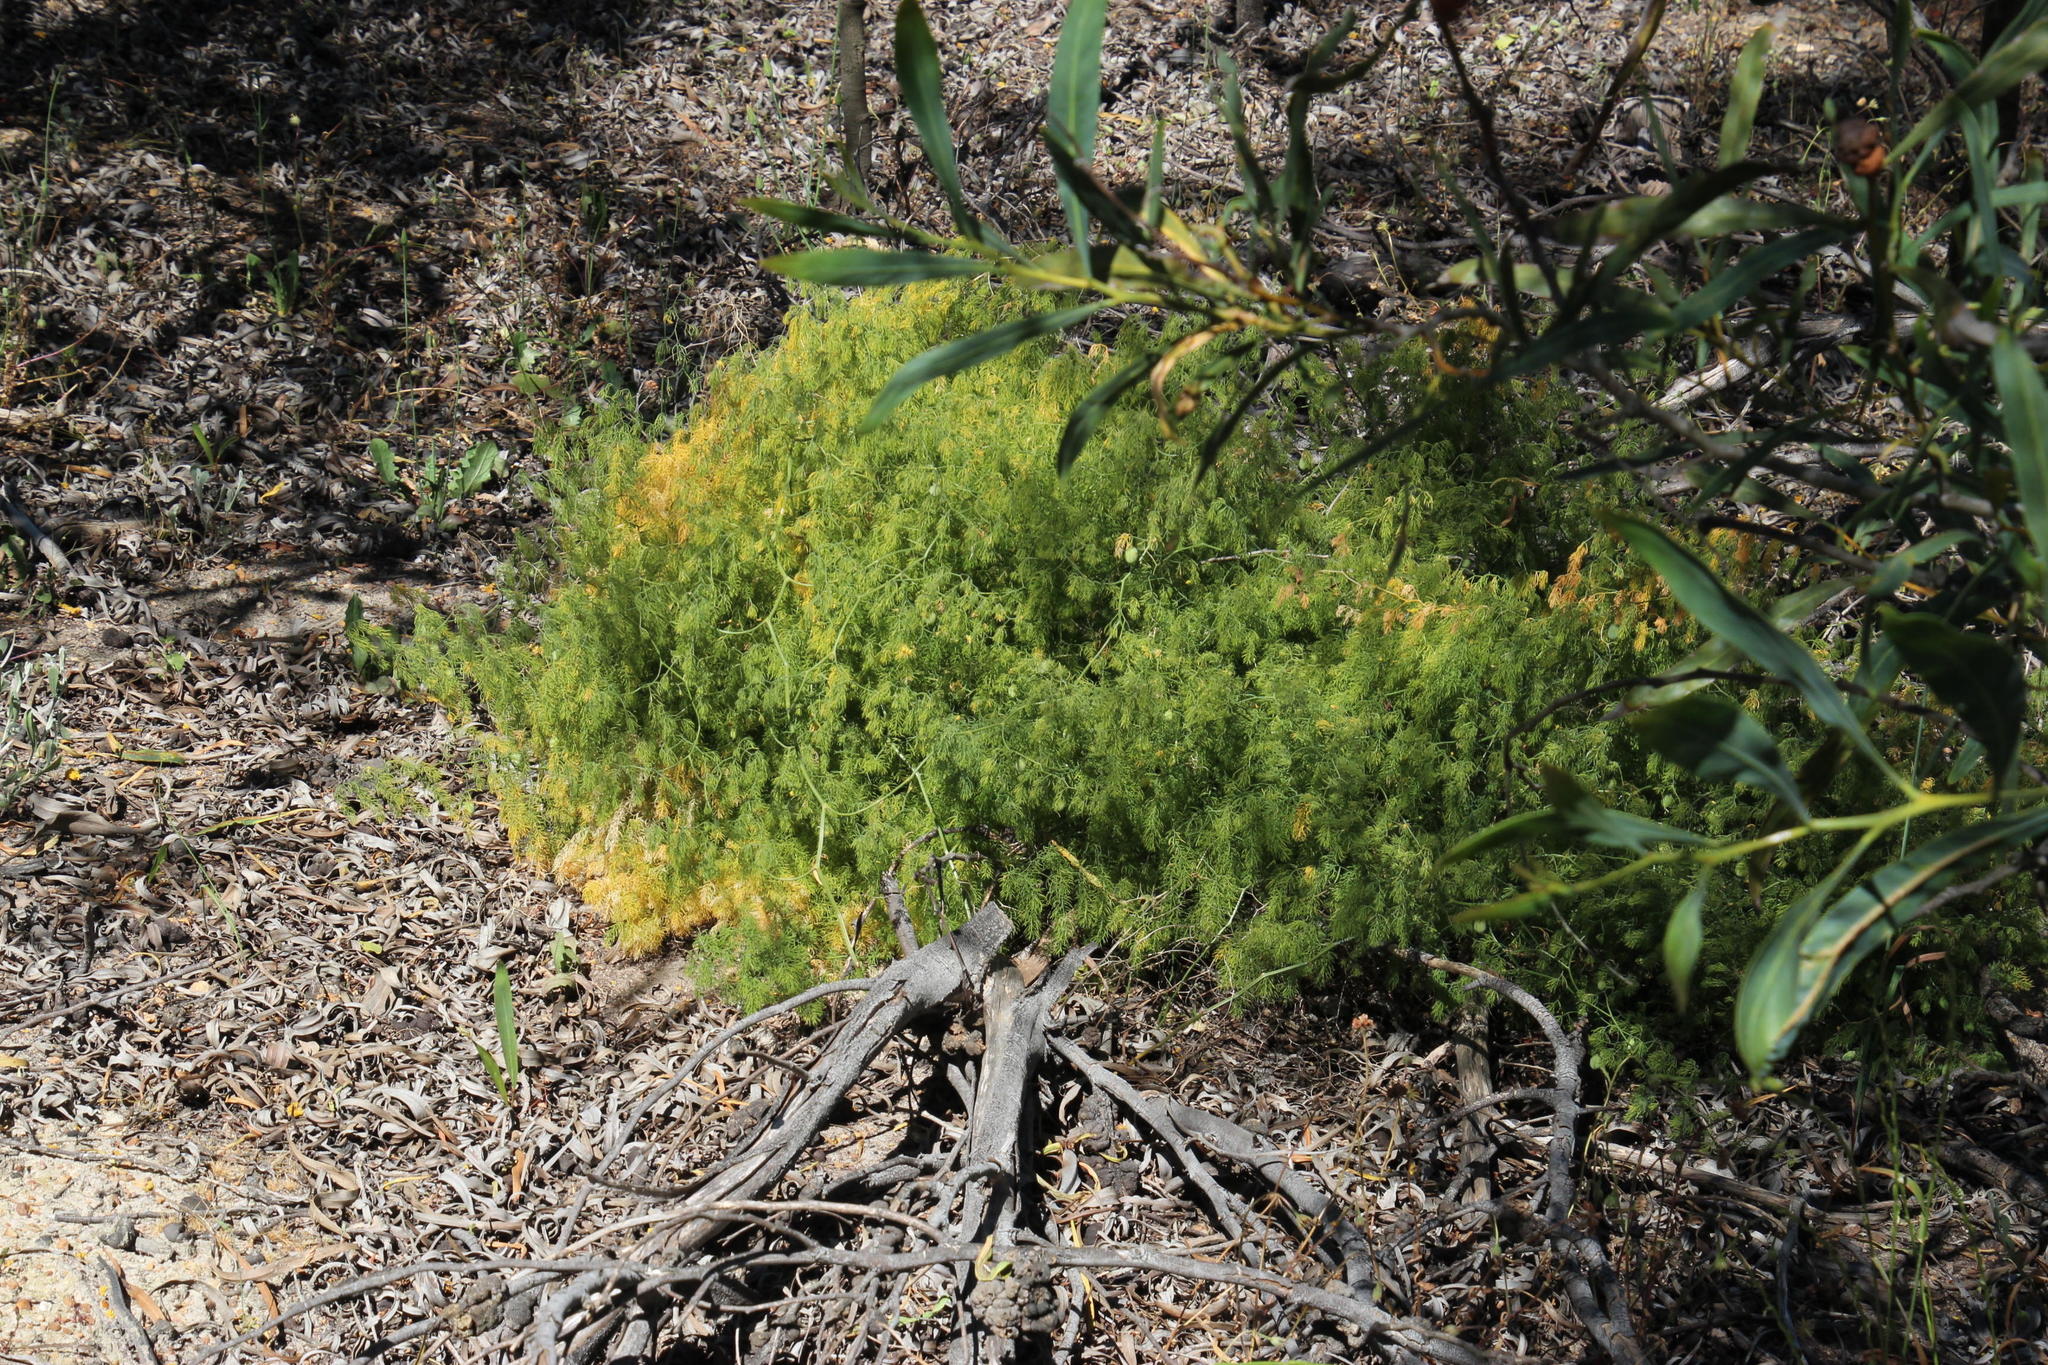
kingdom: Plantae
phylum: Tracheophyta
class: Liliopsida
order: Asparagales
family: Asparagaceae
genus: Asparagus
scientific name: Asparagus declinatus
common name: Bridal-creeper
